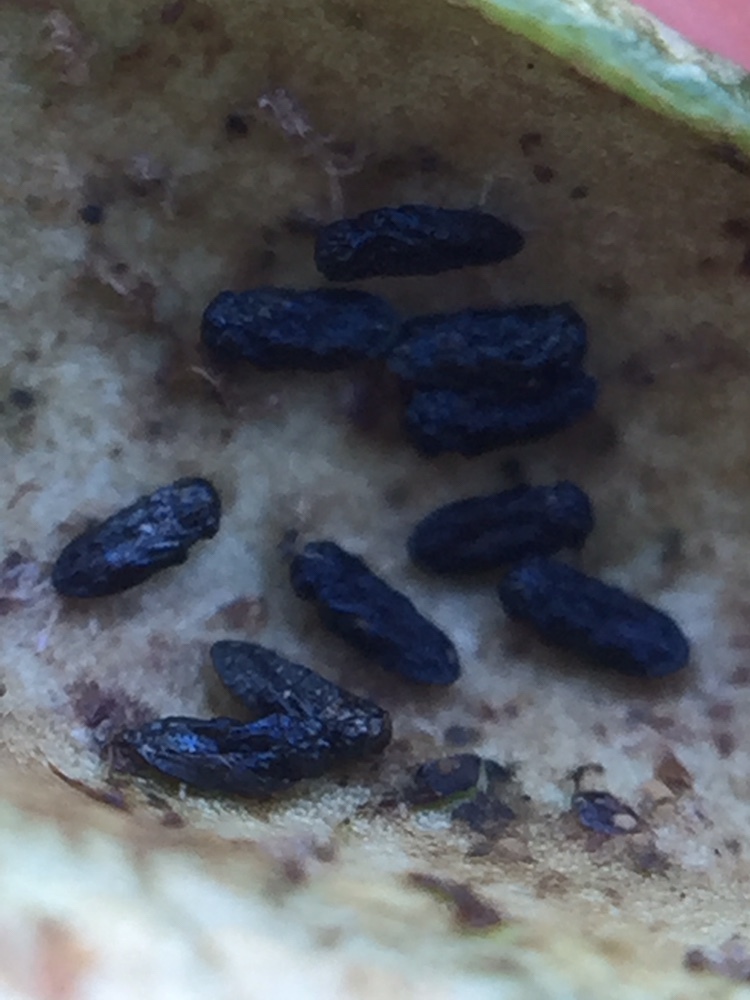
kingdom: Animalia
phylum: Arthropoda
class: Insecta
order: Hymenoptera
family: Eulophidae
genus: Thripoctenus
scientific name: Thripoctenus javae
